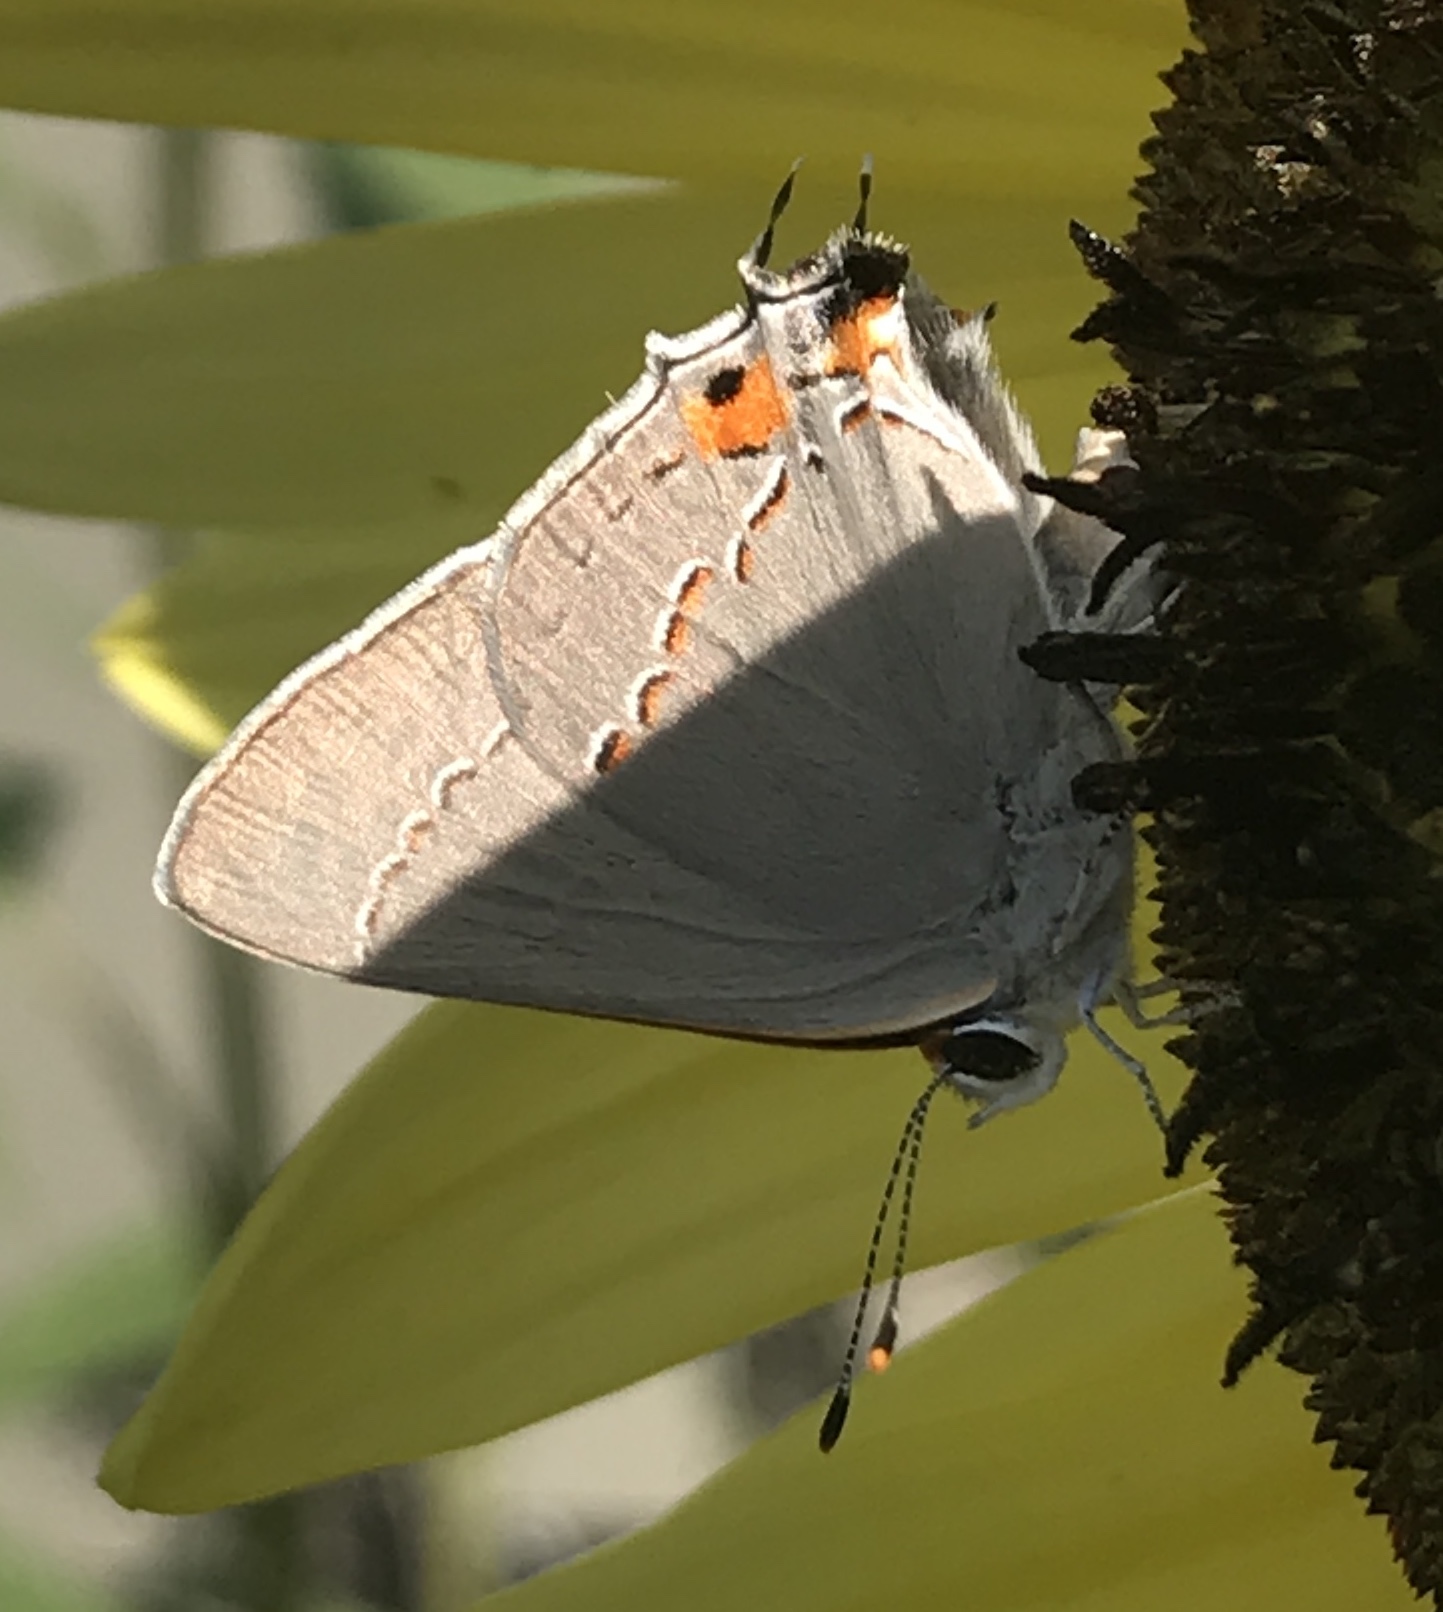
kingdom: Animalia
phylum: Arthropoda
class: Insecta
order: Lepidoptera
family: Lycaenidae
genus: Strymon
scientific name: Strymon melinus
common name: Gray hairstreak
